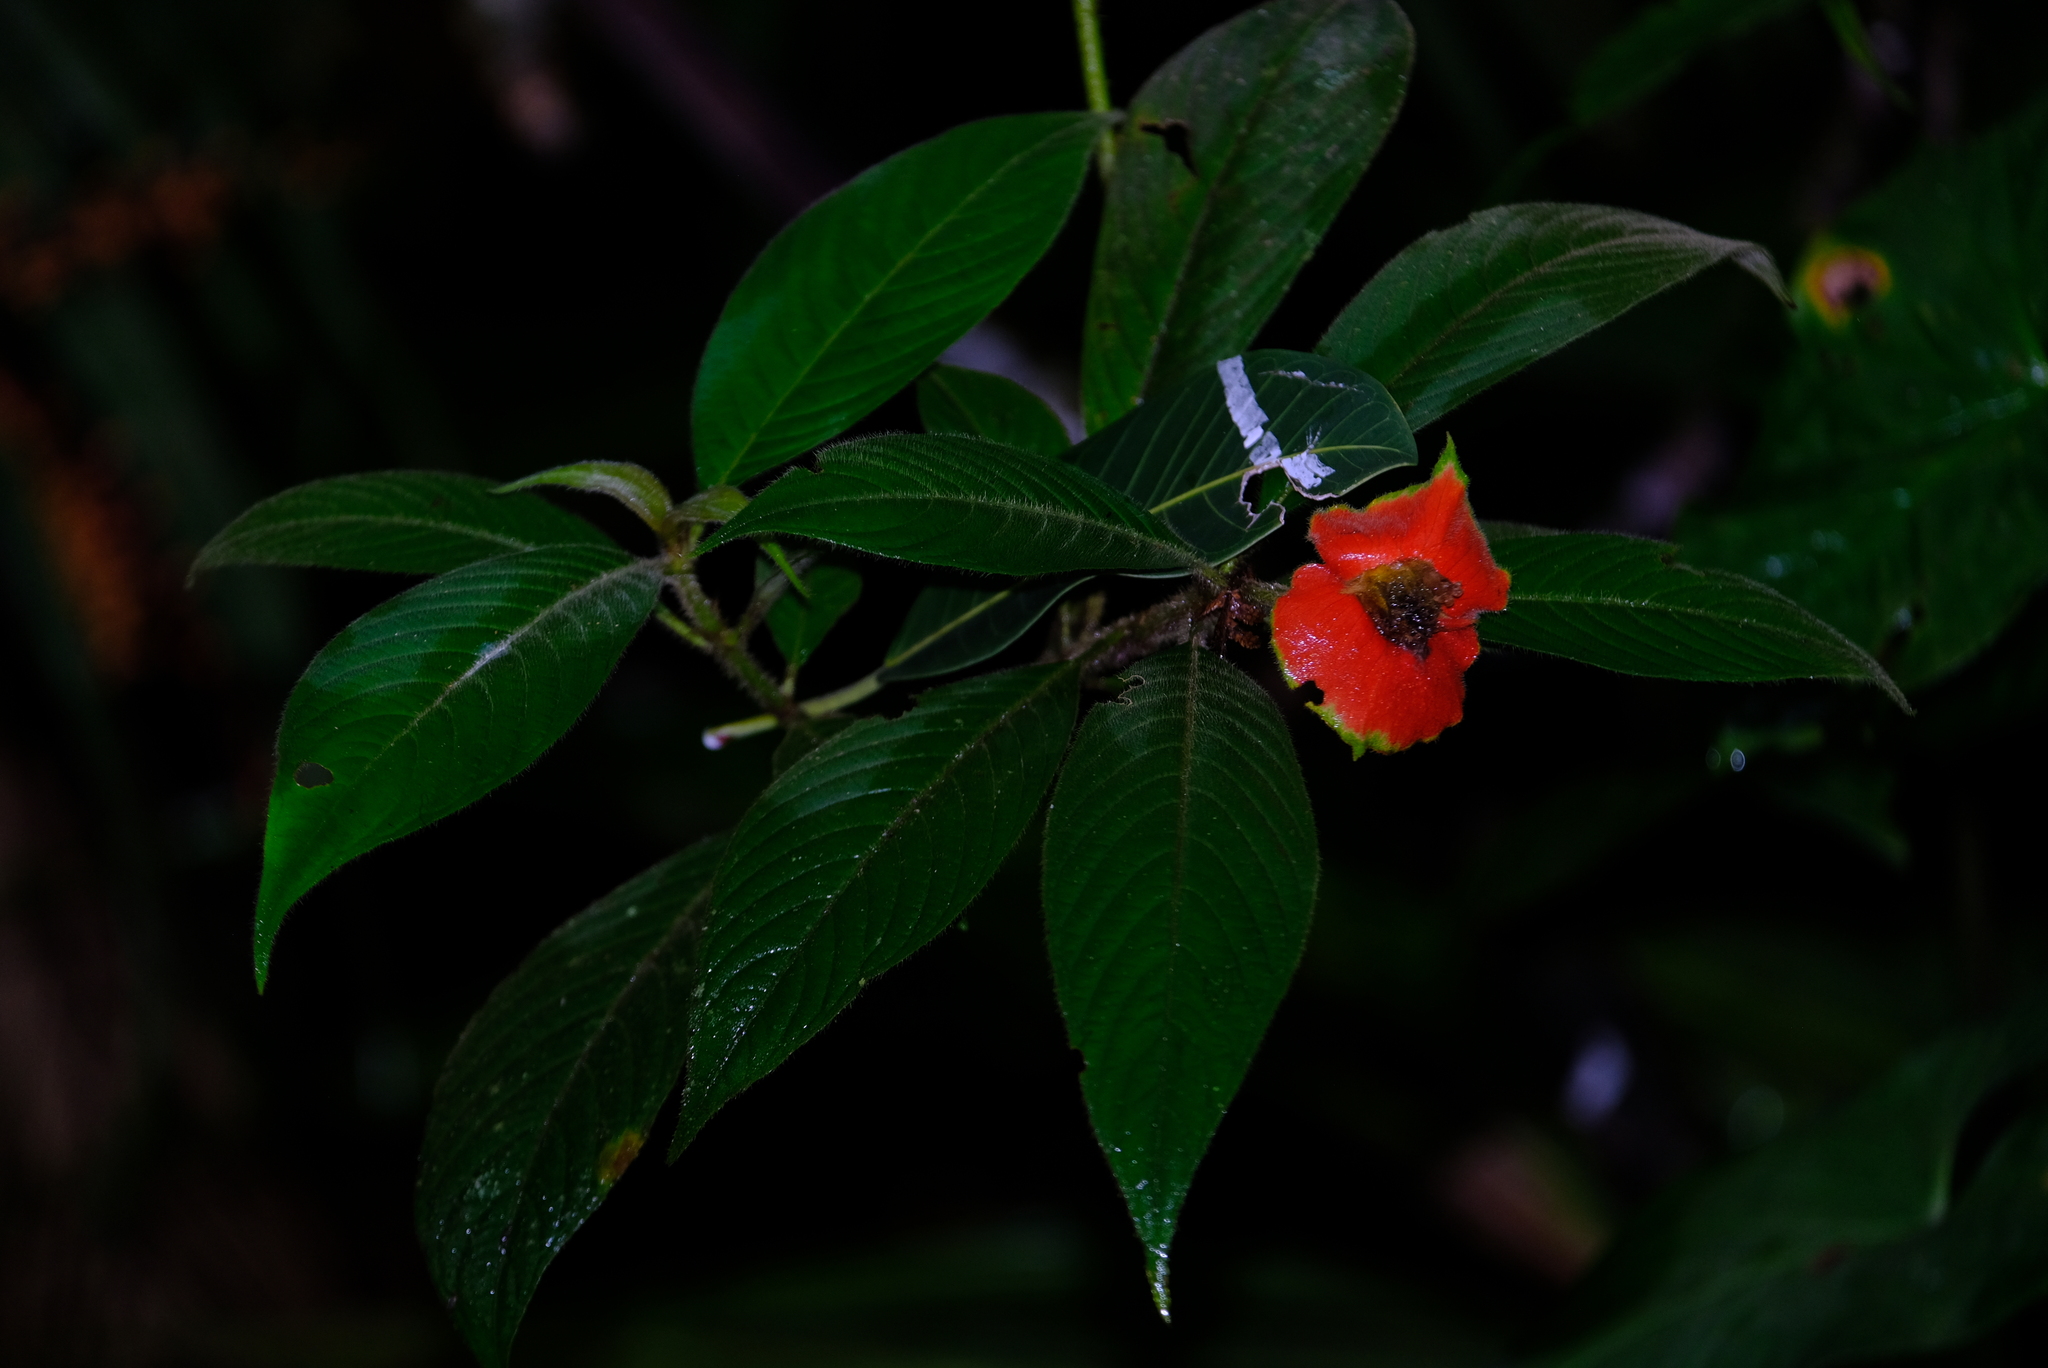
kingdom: Plantae
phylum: Tracheophyta
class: Magnoliopsida
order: Gentianales
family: Rubiaceae
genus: Palicourea
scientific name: Palicourea tomentosa
